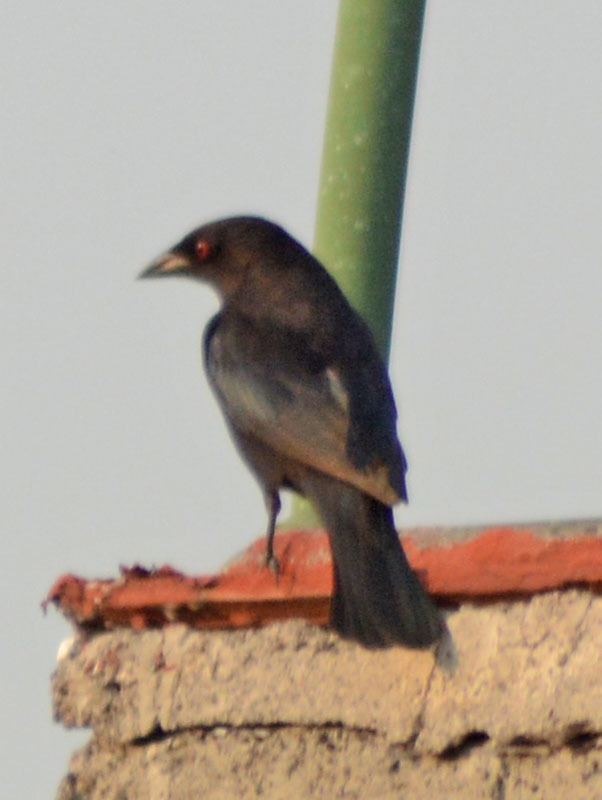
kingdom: Animalia
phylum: Chordata
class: Aves
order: Passeriformes
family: Icteridae
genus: Molothrus
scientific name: Molothrus aeneus
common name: Bronzed cowbird
